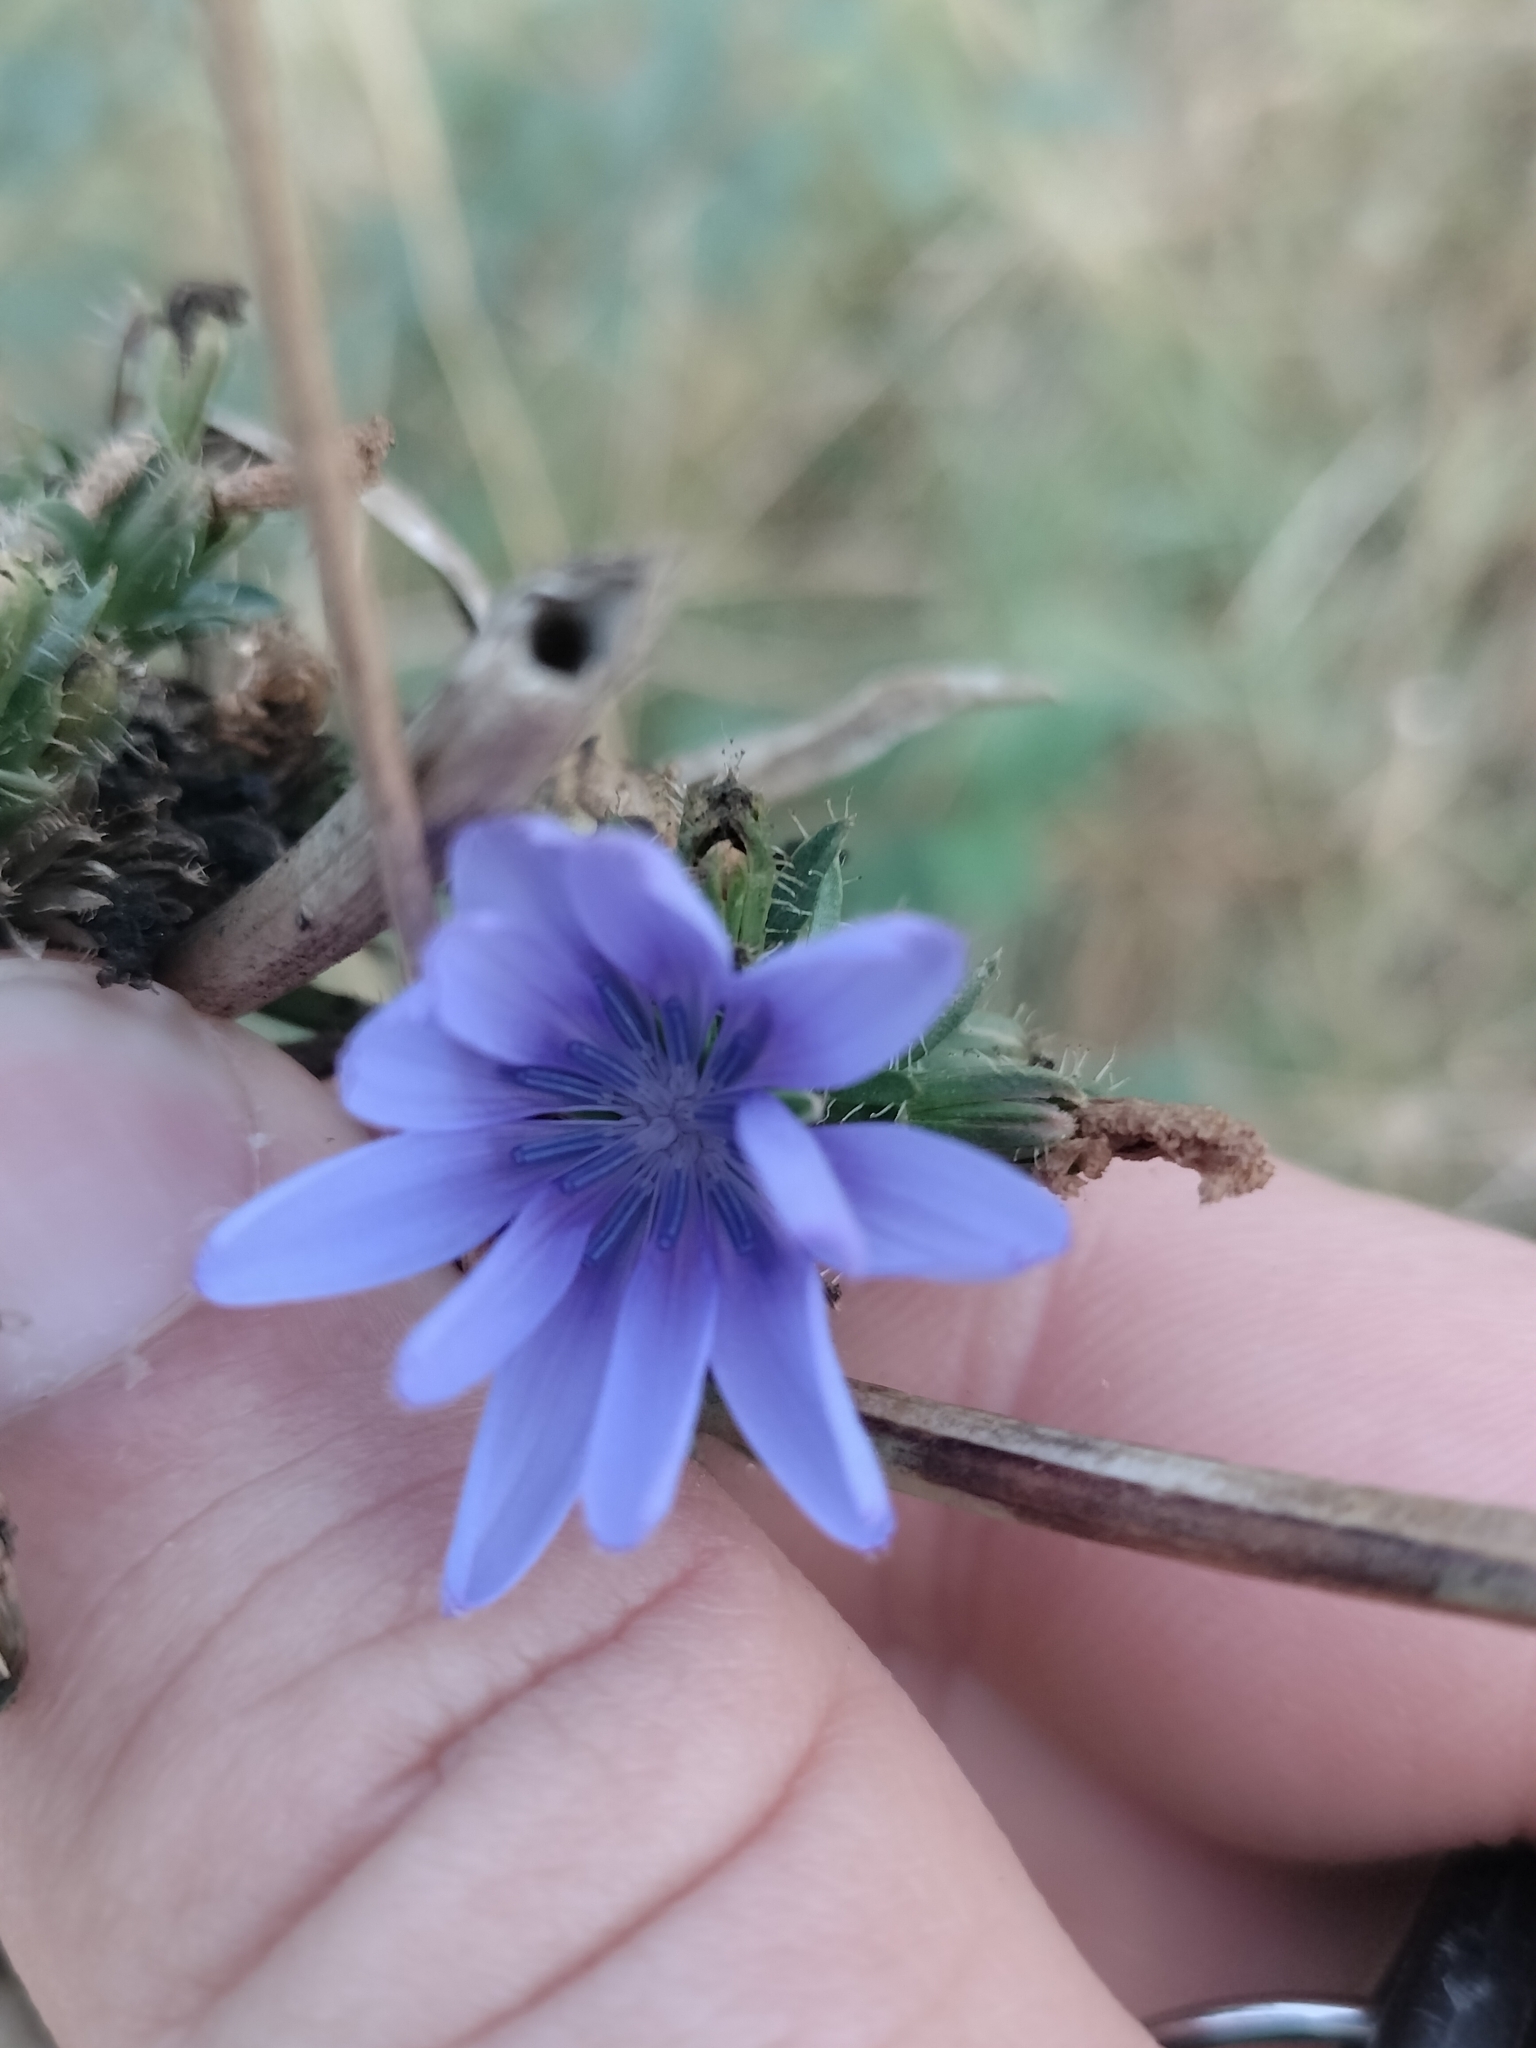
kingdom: Plantae
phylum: Tracheophyta
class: Magnoliopsida
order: Asterales
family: Asteraceae
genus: Cichorium
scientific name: Cichorium intybus
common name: Chicory
